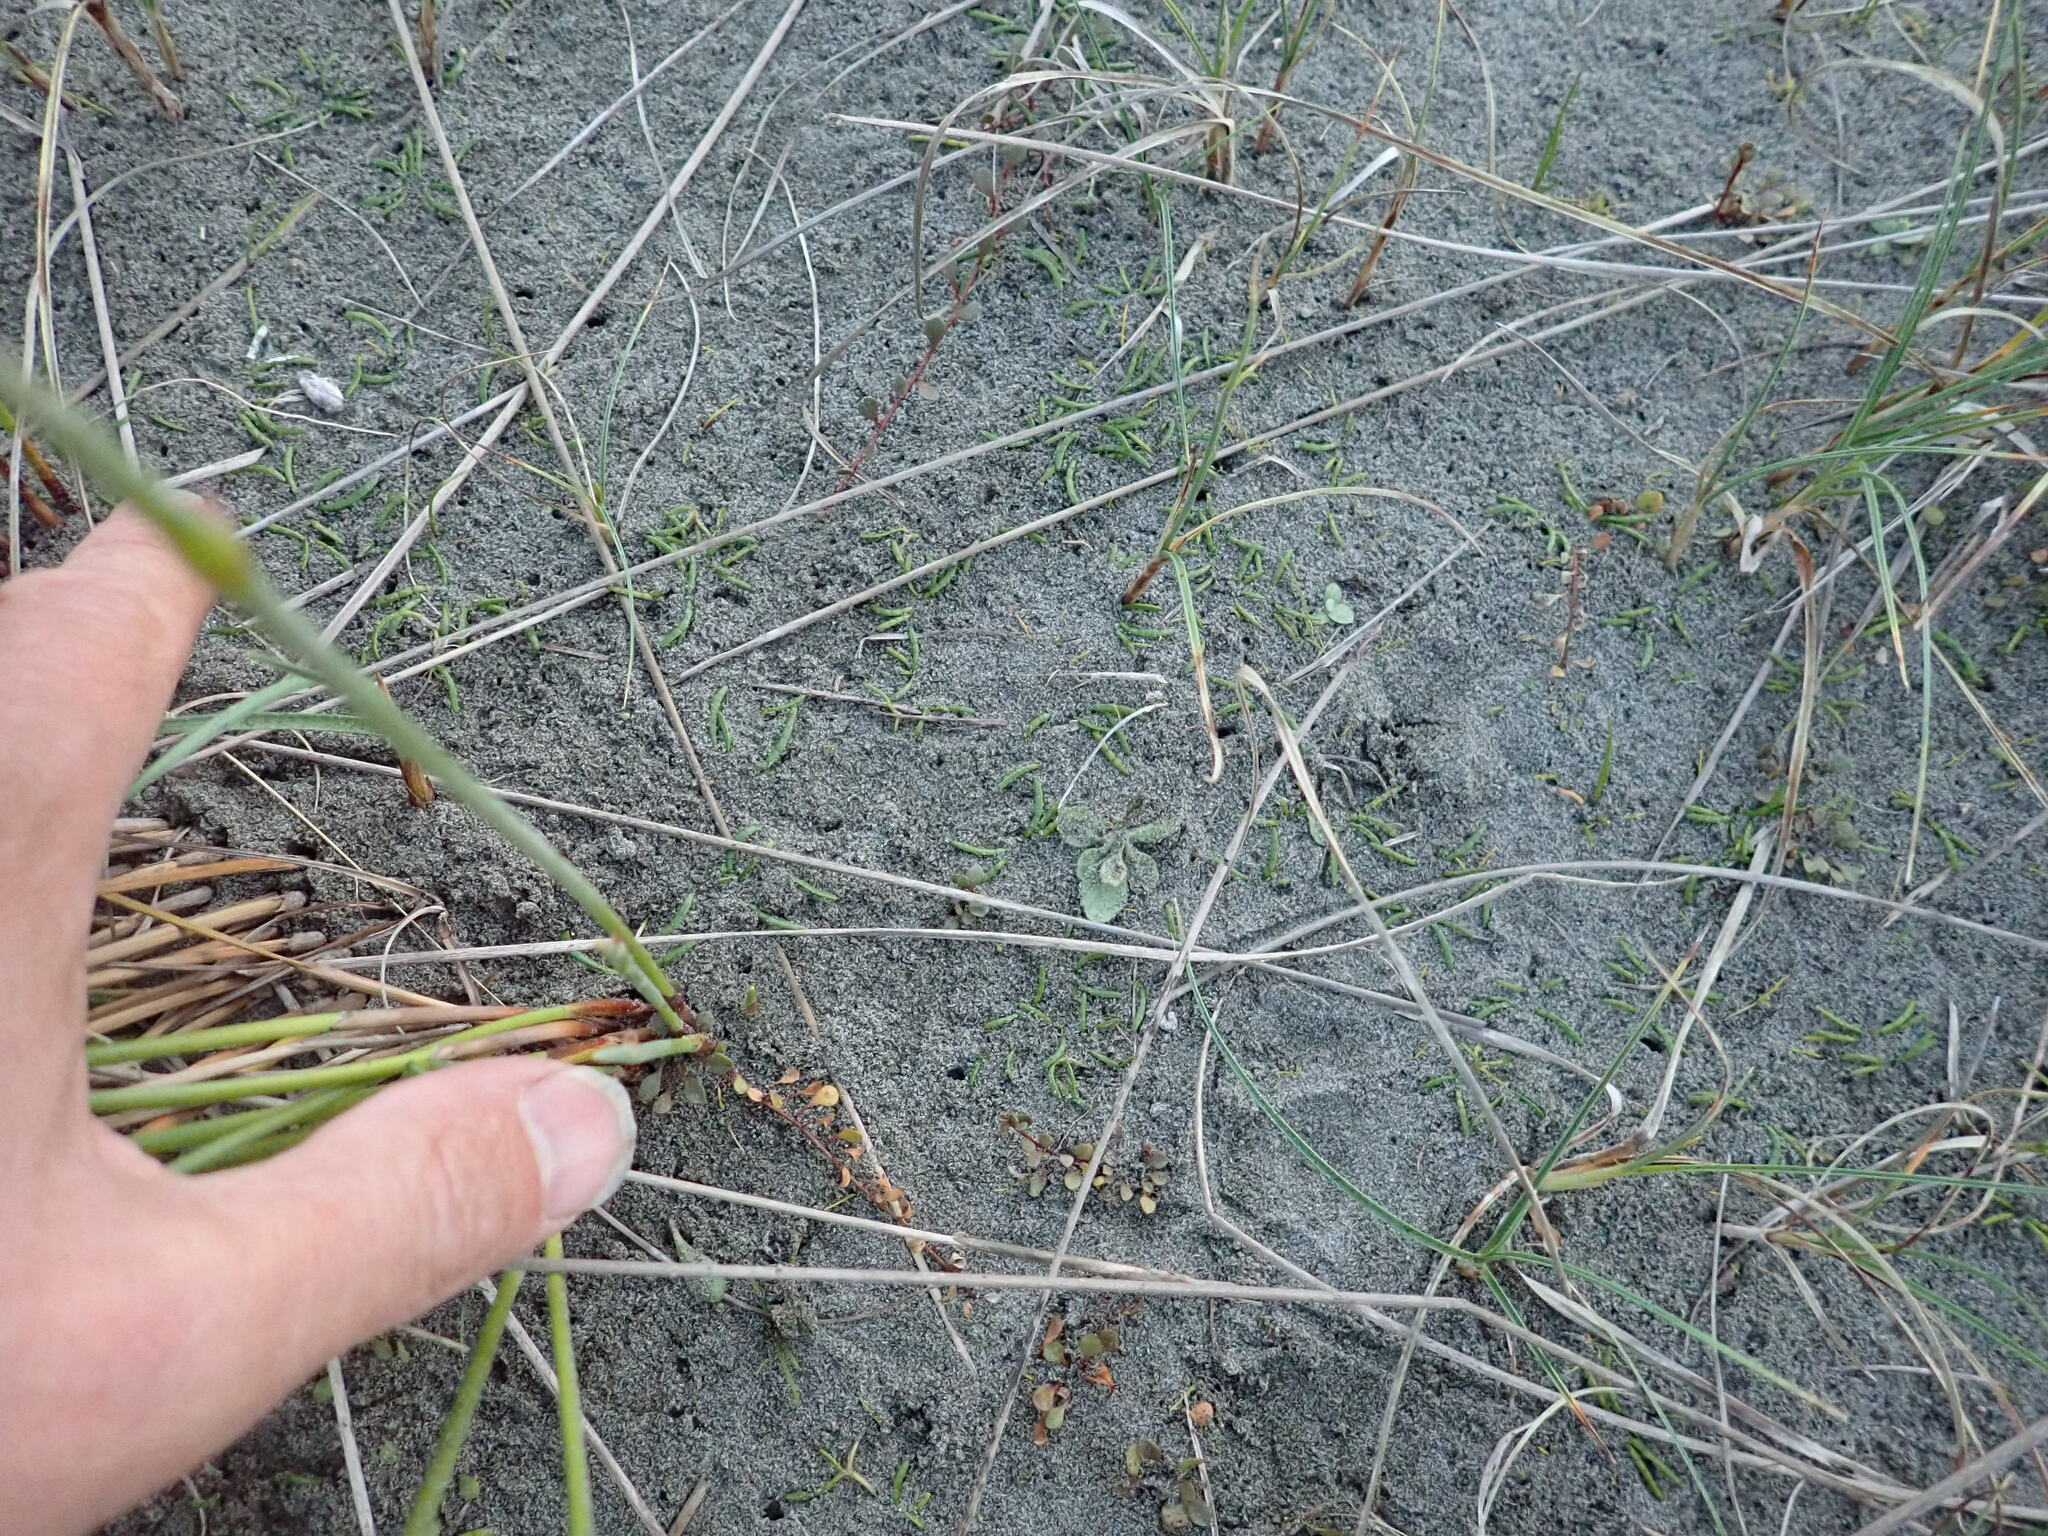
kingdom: Plantae
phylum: Tracheophyta
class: Magnoliopsida
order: Apiales
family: Apiaceae
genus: Lilaeopsis
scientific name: Lilaeopsis novae-zelandiae
